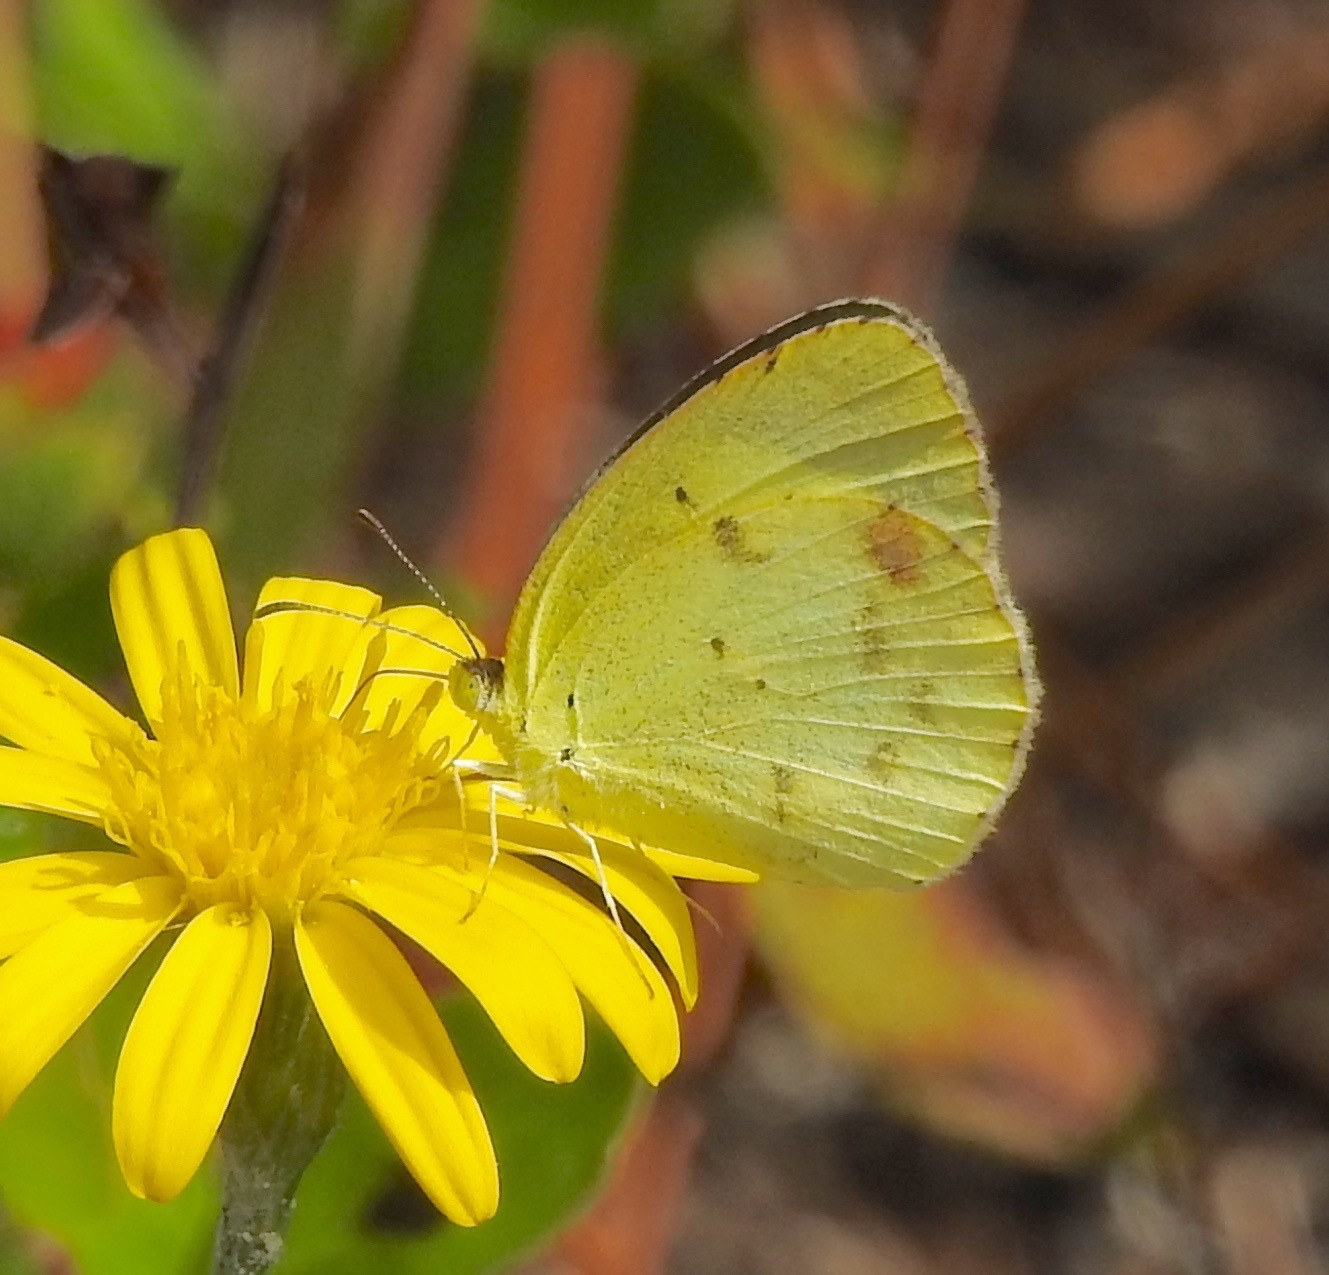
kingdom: Animalia
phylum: Arthropoda
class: Insecta
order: Lepidoptera
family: Pieridae
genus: Pyrisitia
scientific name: Pyrisitia lisa
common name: Little yellow
